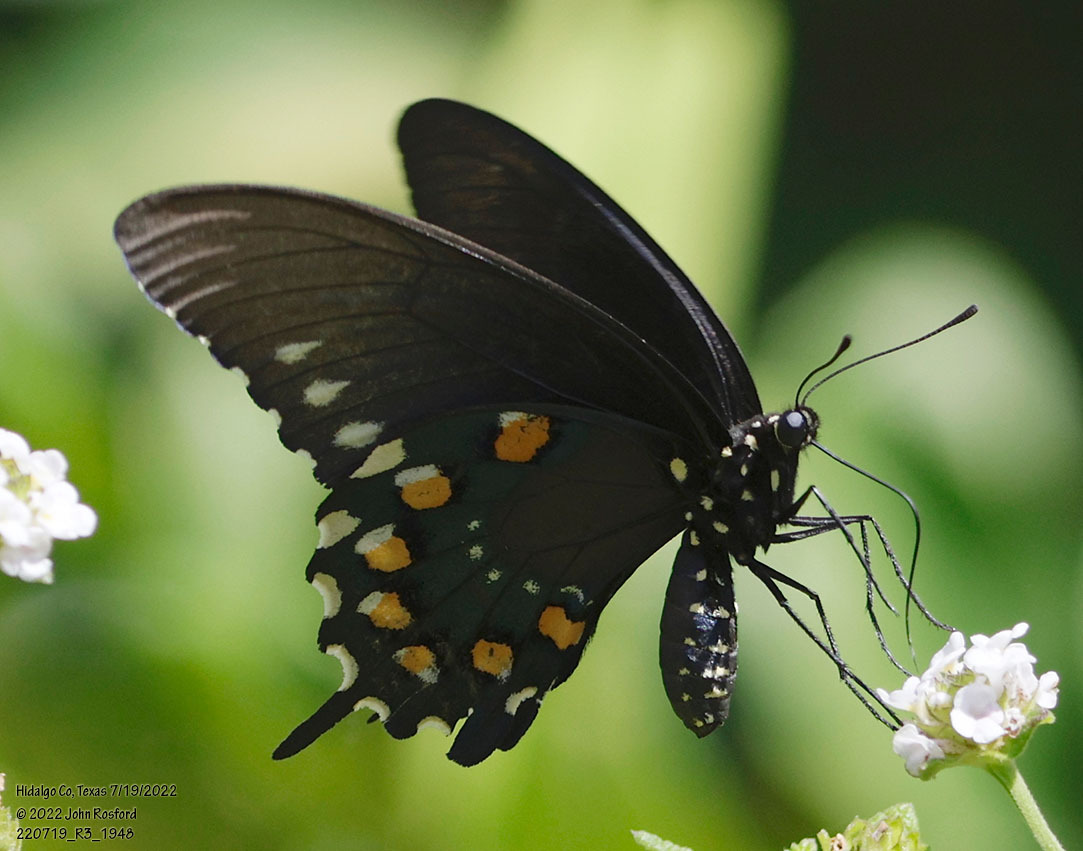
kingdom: Animalia
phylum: Arthropoda
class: Insecta
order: Lepidoptera
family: Papilionidae
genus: Battus
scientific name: Battus philenor
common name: Pipevine swallowtail
